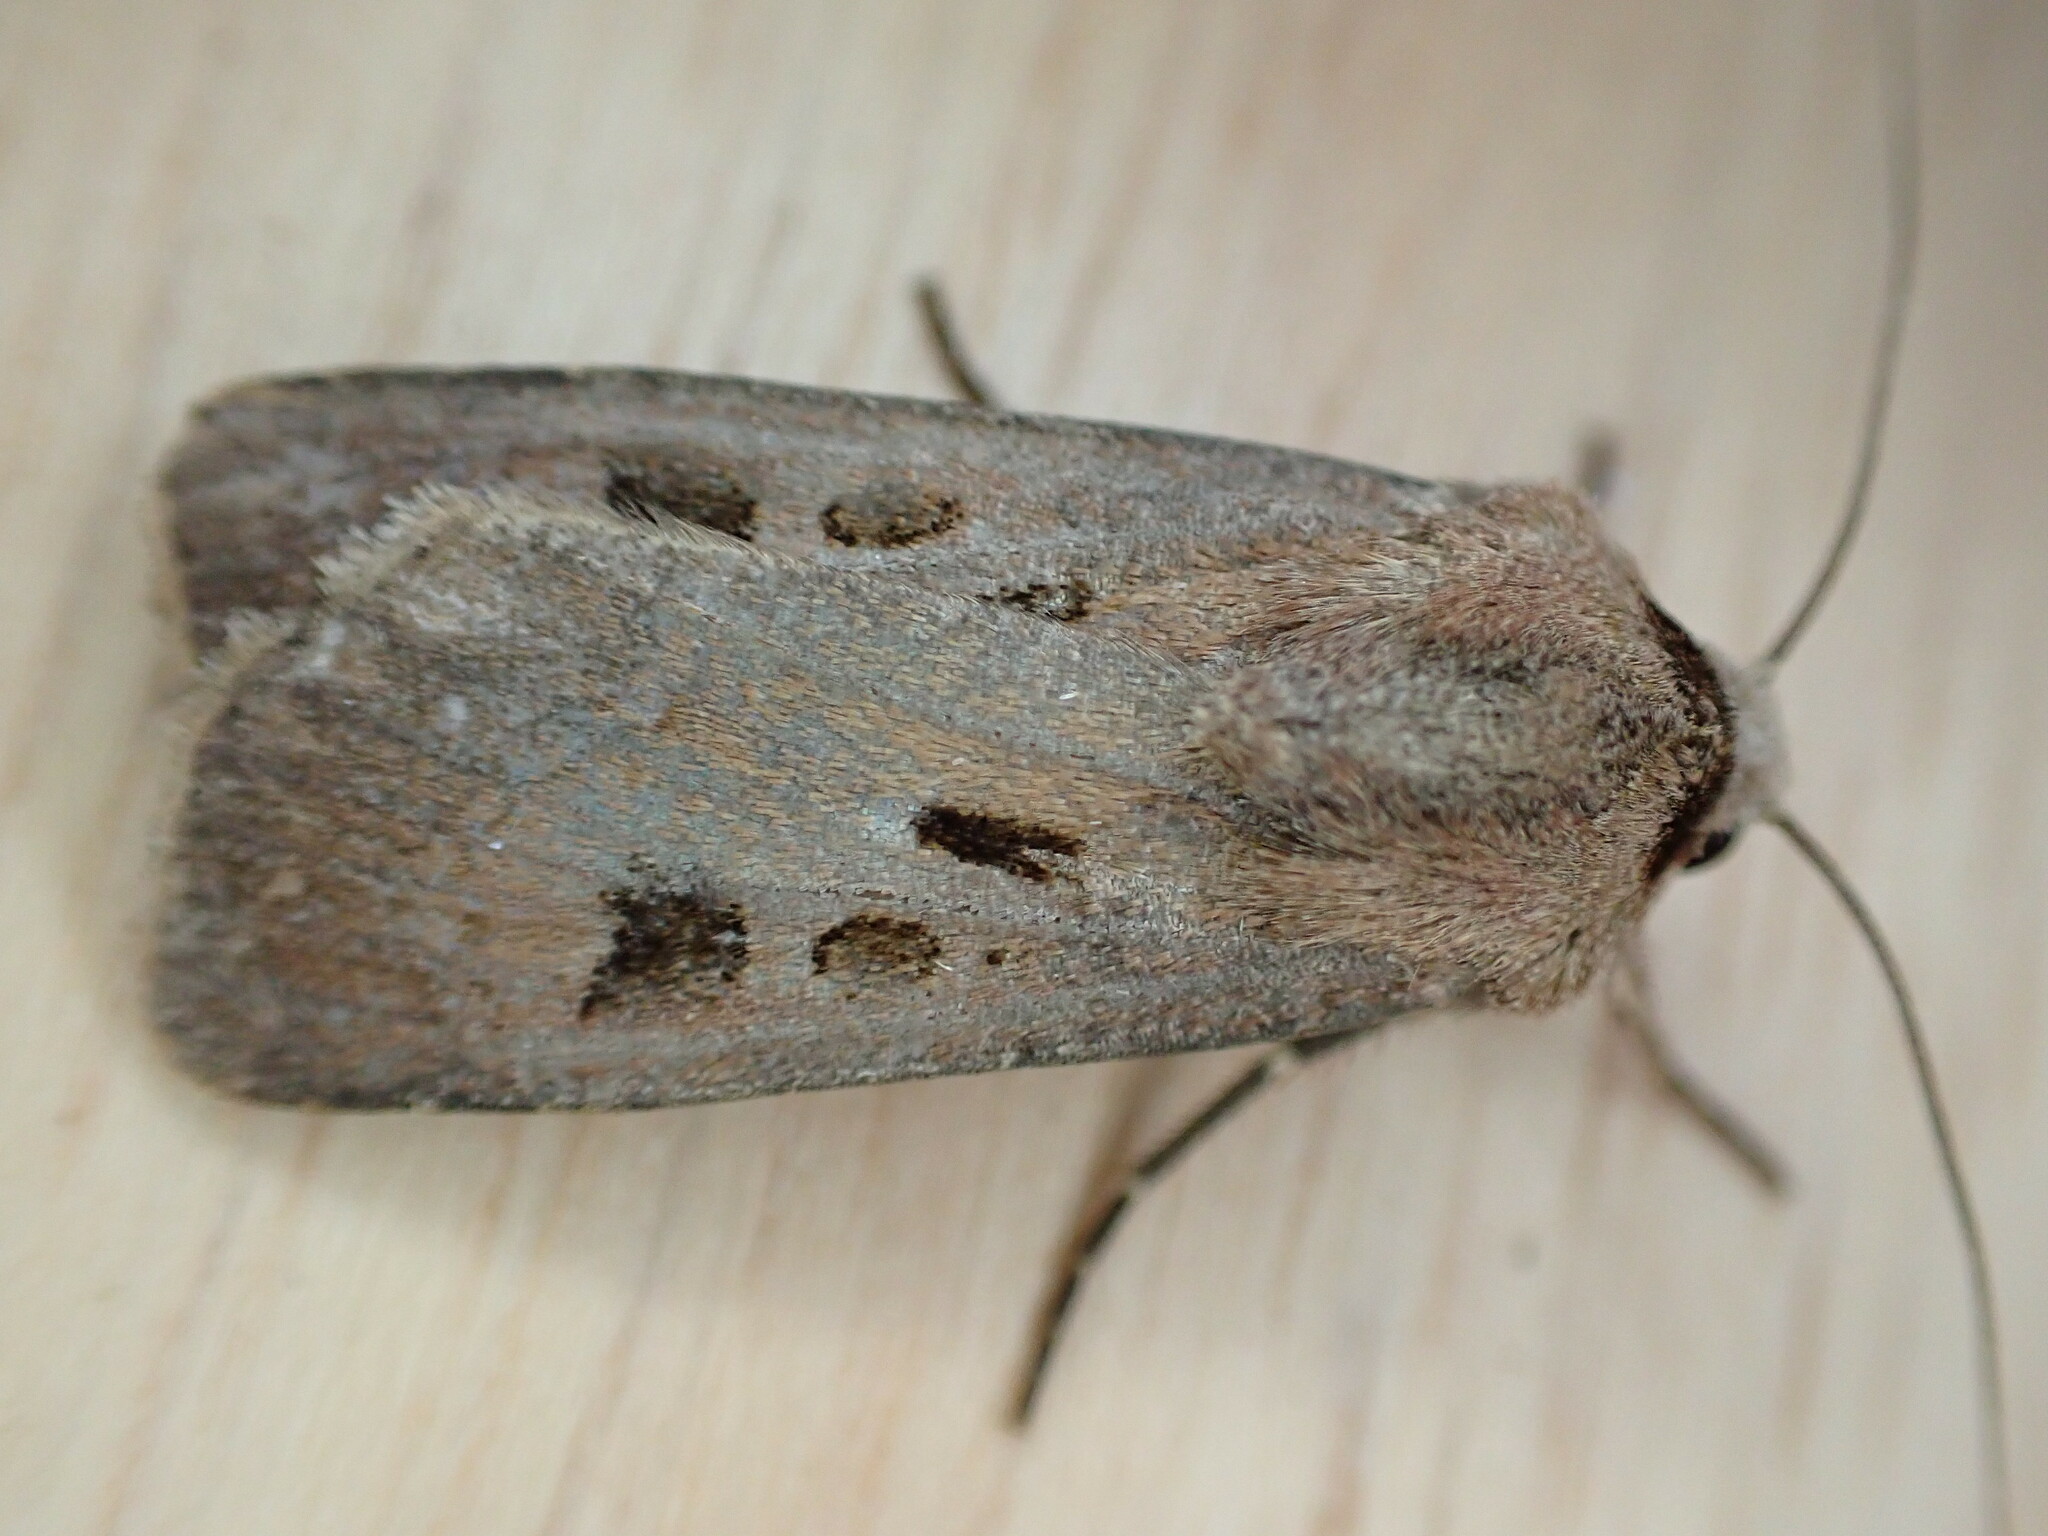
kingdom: Animalia
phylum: Arthropoda
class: Insecta
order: Lepidoptera
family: Noctuidae
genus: Agrotis
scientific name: Agrotis exclamationis
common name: Heart and dart
